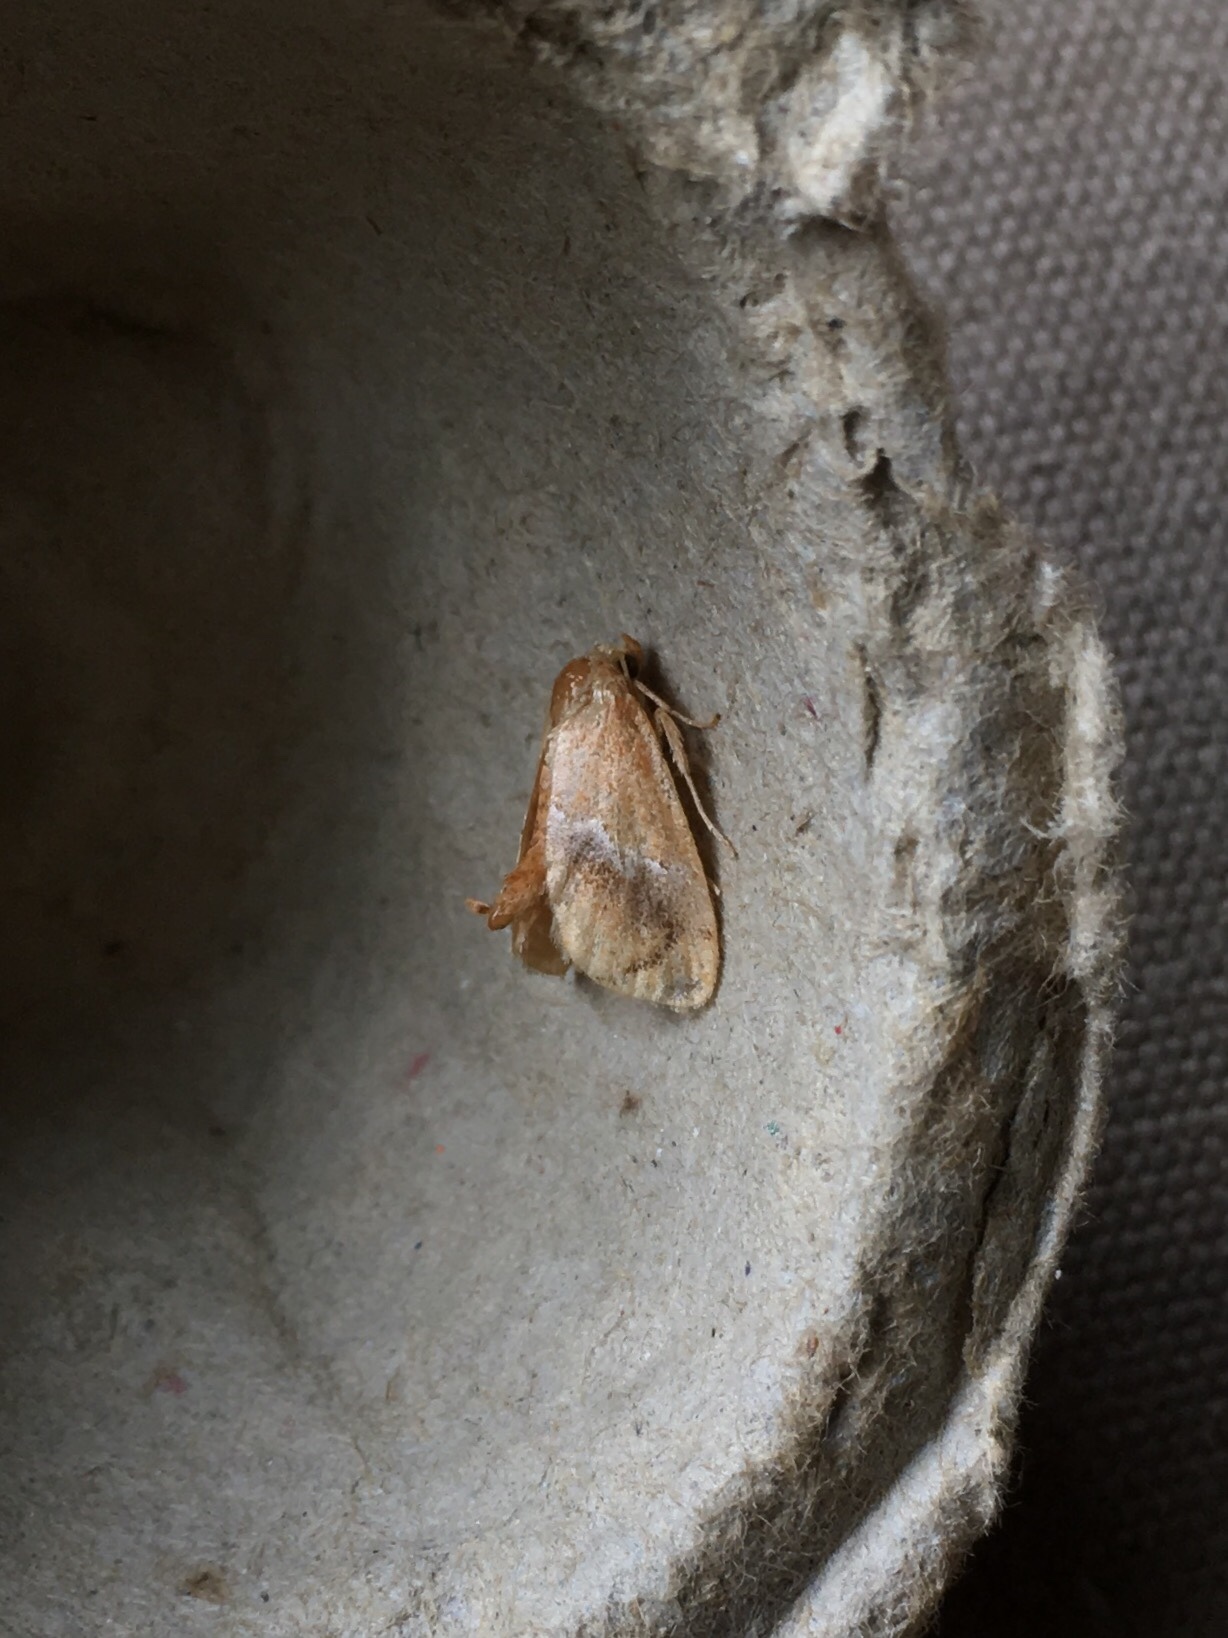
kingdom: Animalia
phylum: Arthropoda
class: Insecta
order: Lepidoptera
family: Limacodidae
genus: Lithacodes
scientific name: Lithacodes fasciola
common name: Yellow-shouldered slug moth
